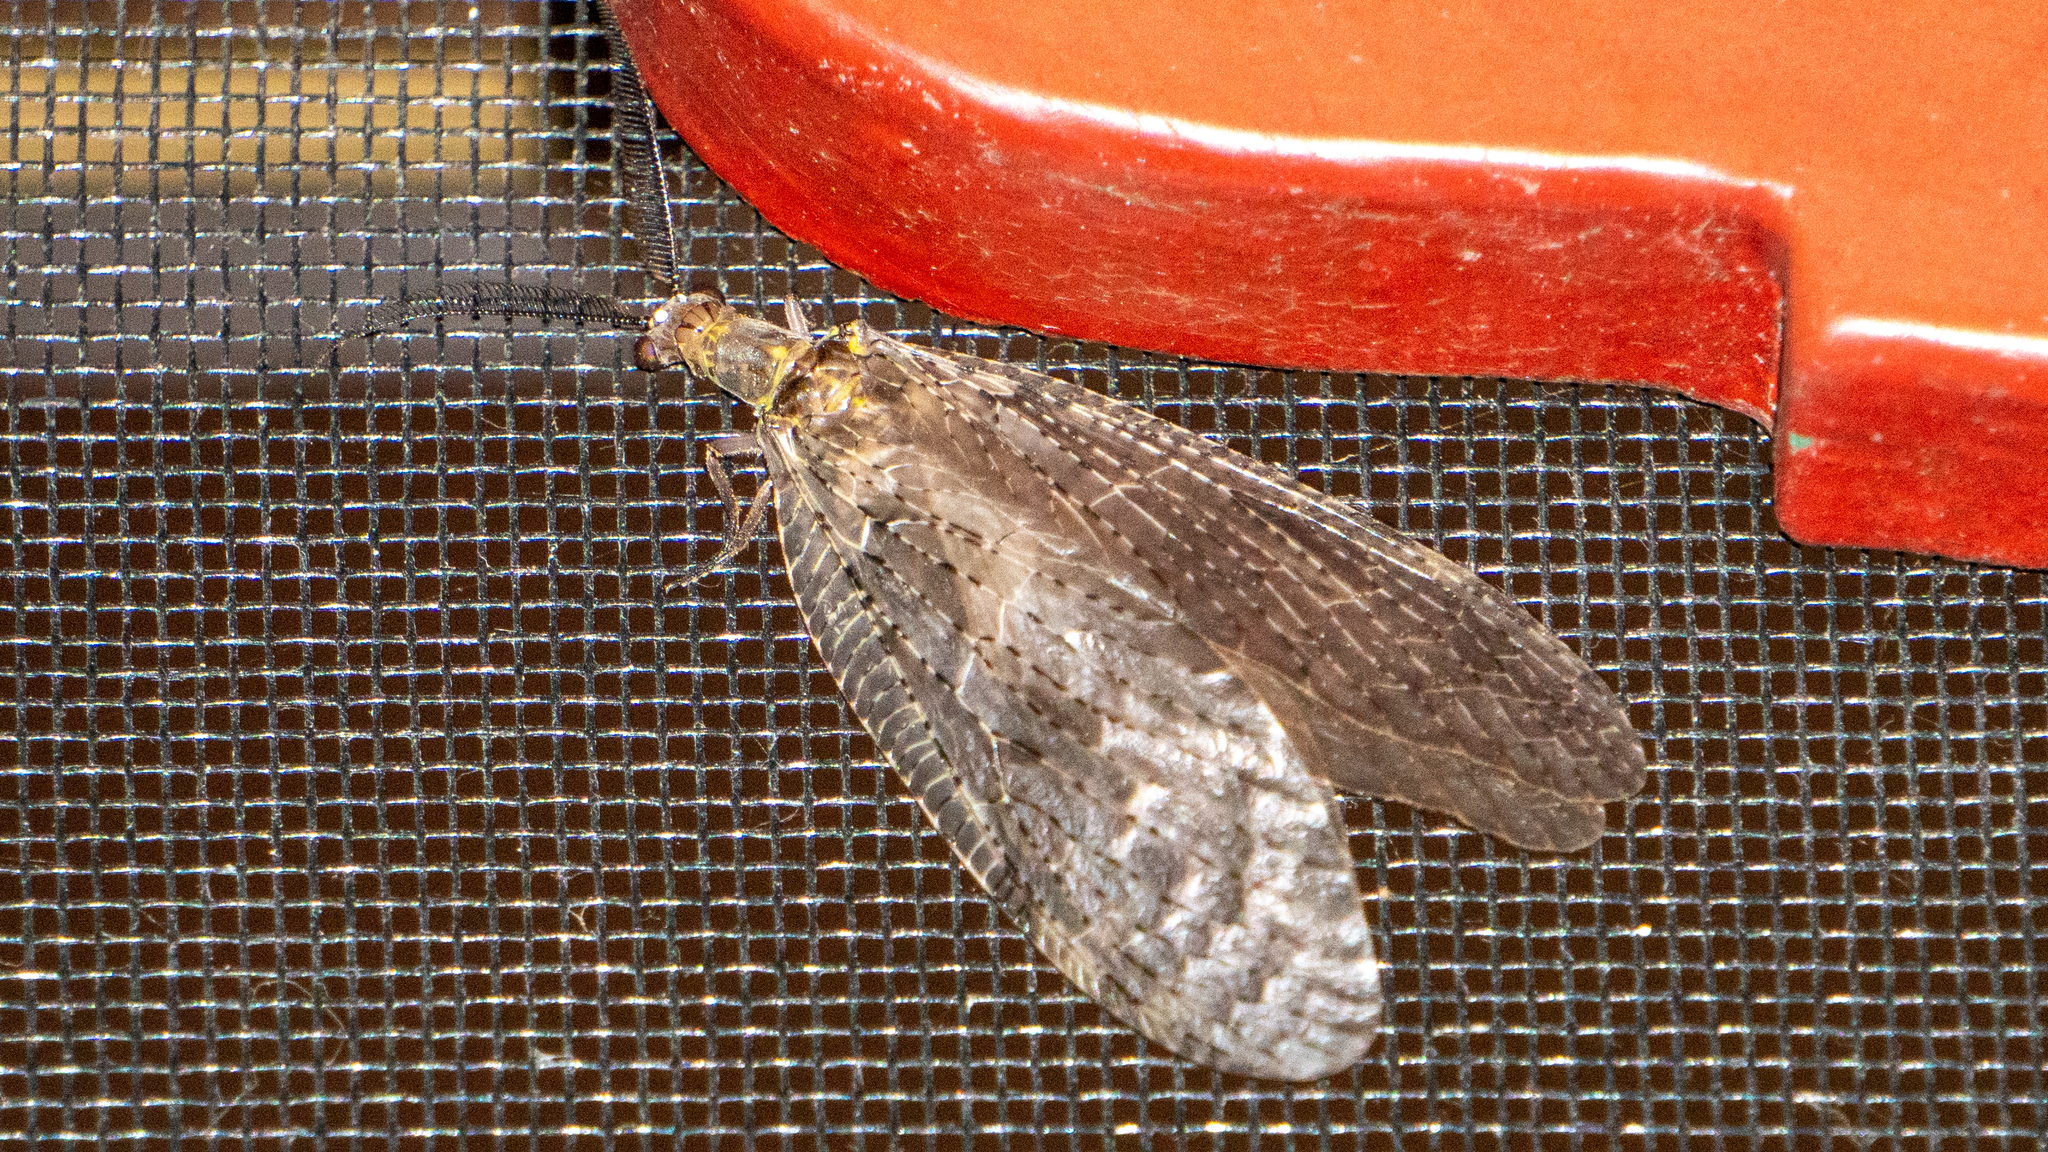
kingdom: Animalia
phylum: Arthropoda
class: Insecta
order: Megaloptera
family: Corydalidae
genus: Chauliodes
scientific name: Chauliodes pectinicornis
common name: Summer fishfly
